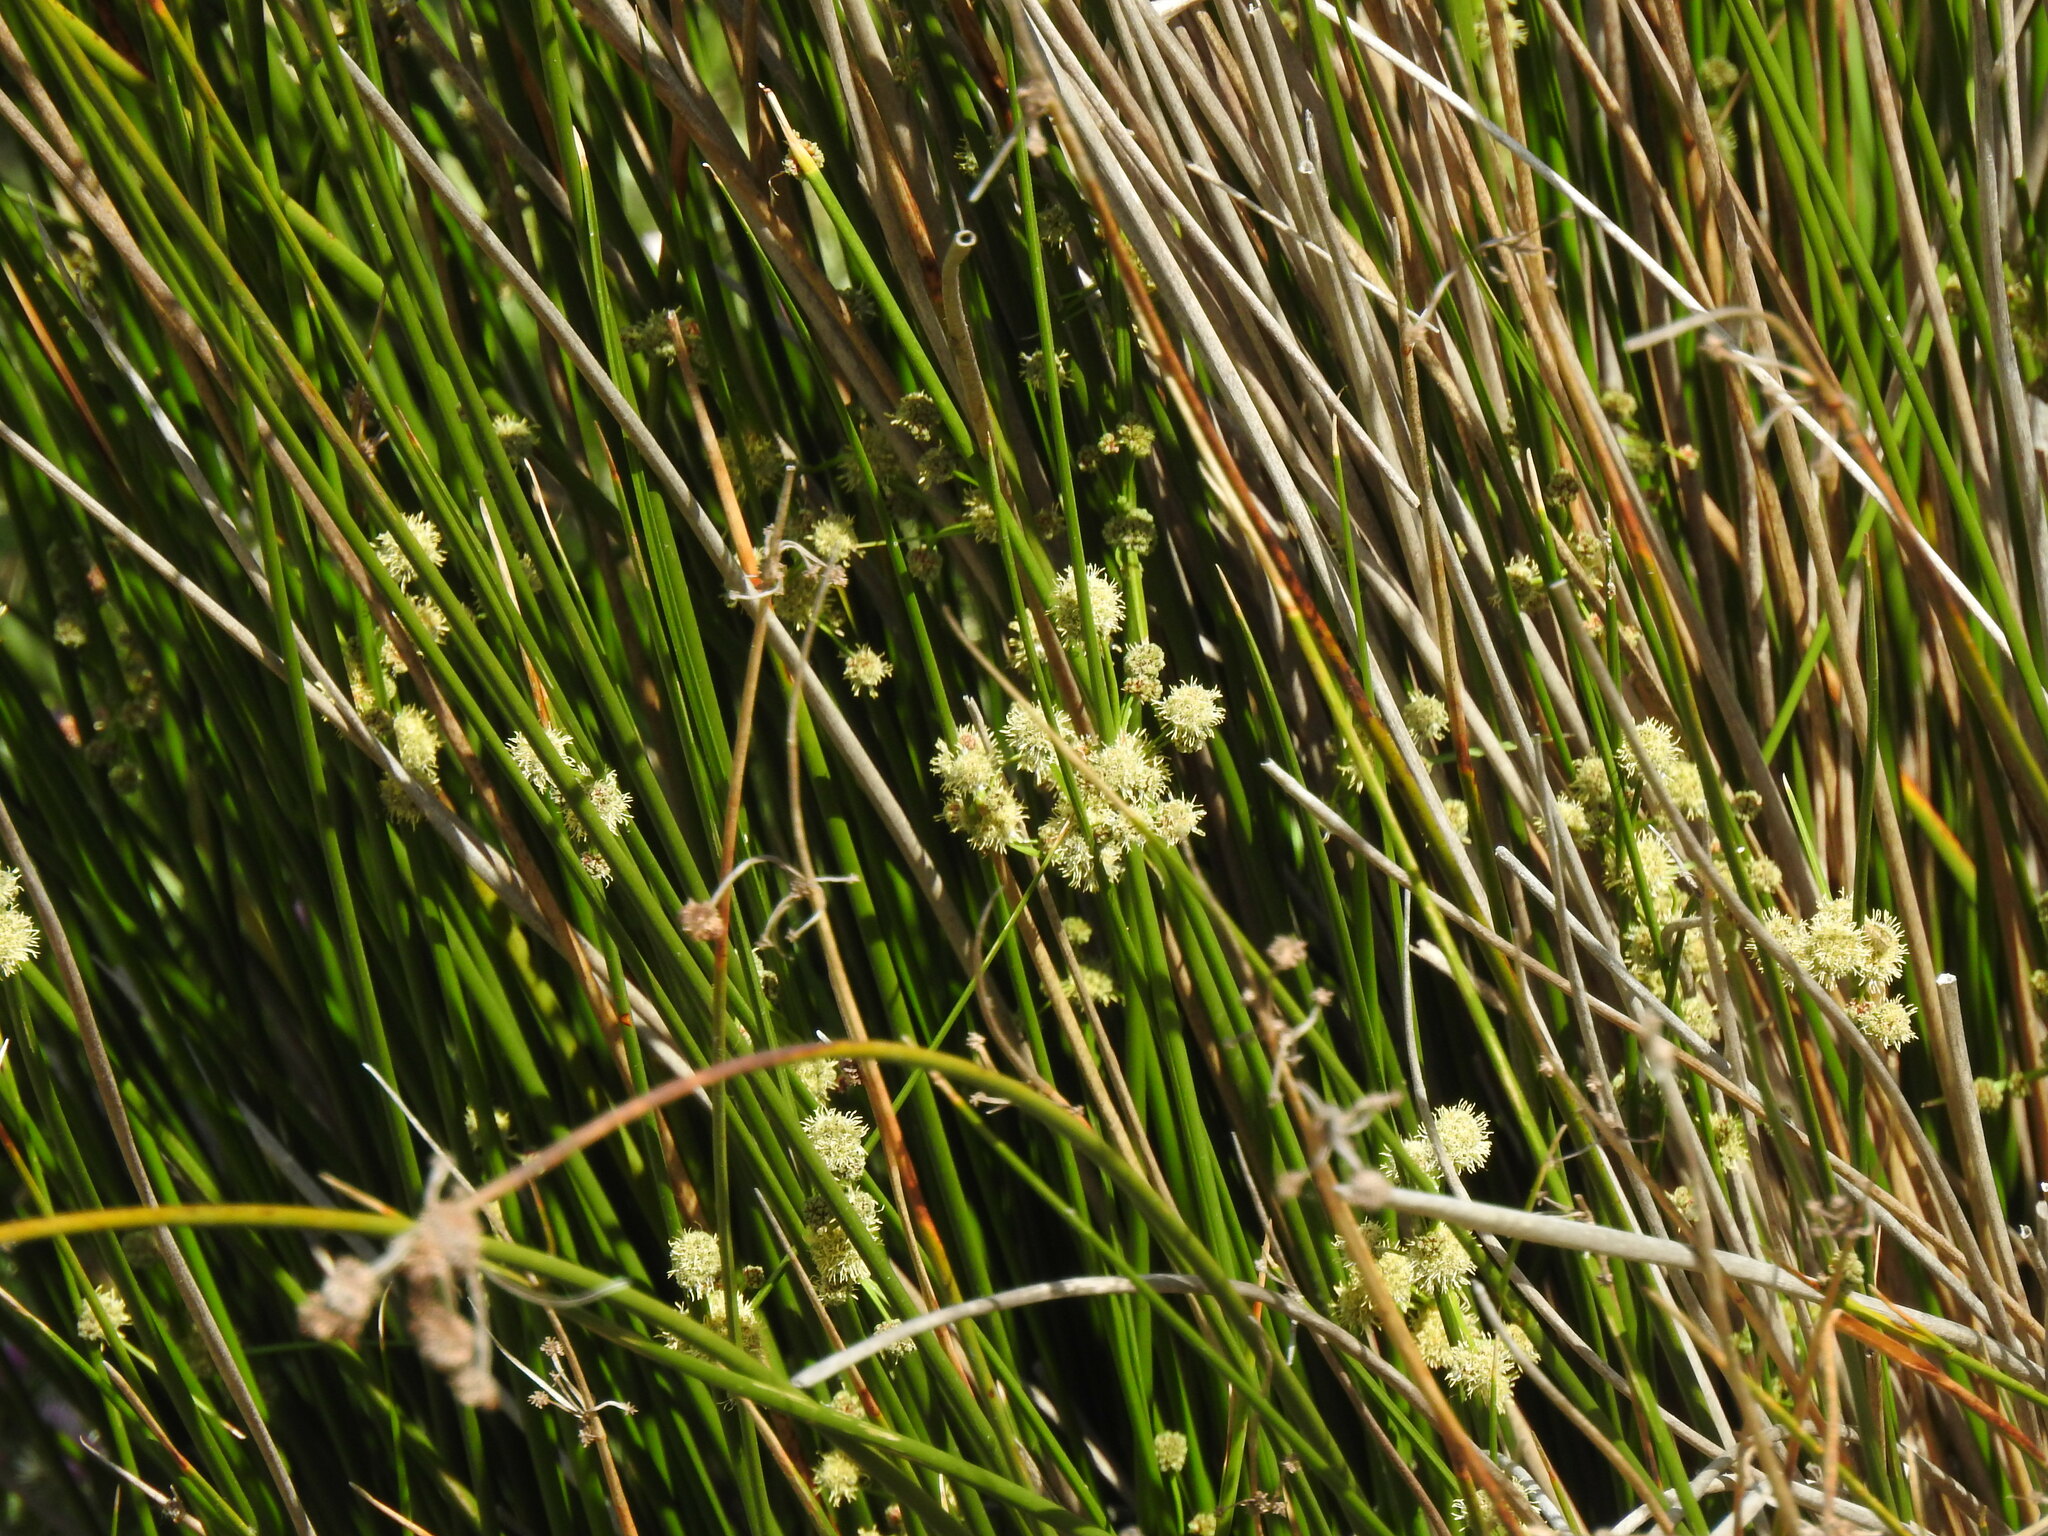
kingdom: Plantae
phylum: Tracheophyta
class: Liliopsida
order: Poales
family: Cyperaceae
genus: Scirpoides
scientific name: Scirpoides holoschoenus
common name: Round-headed club-rush
